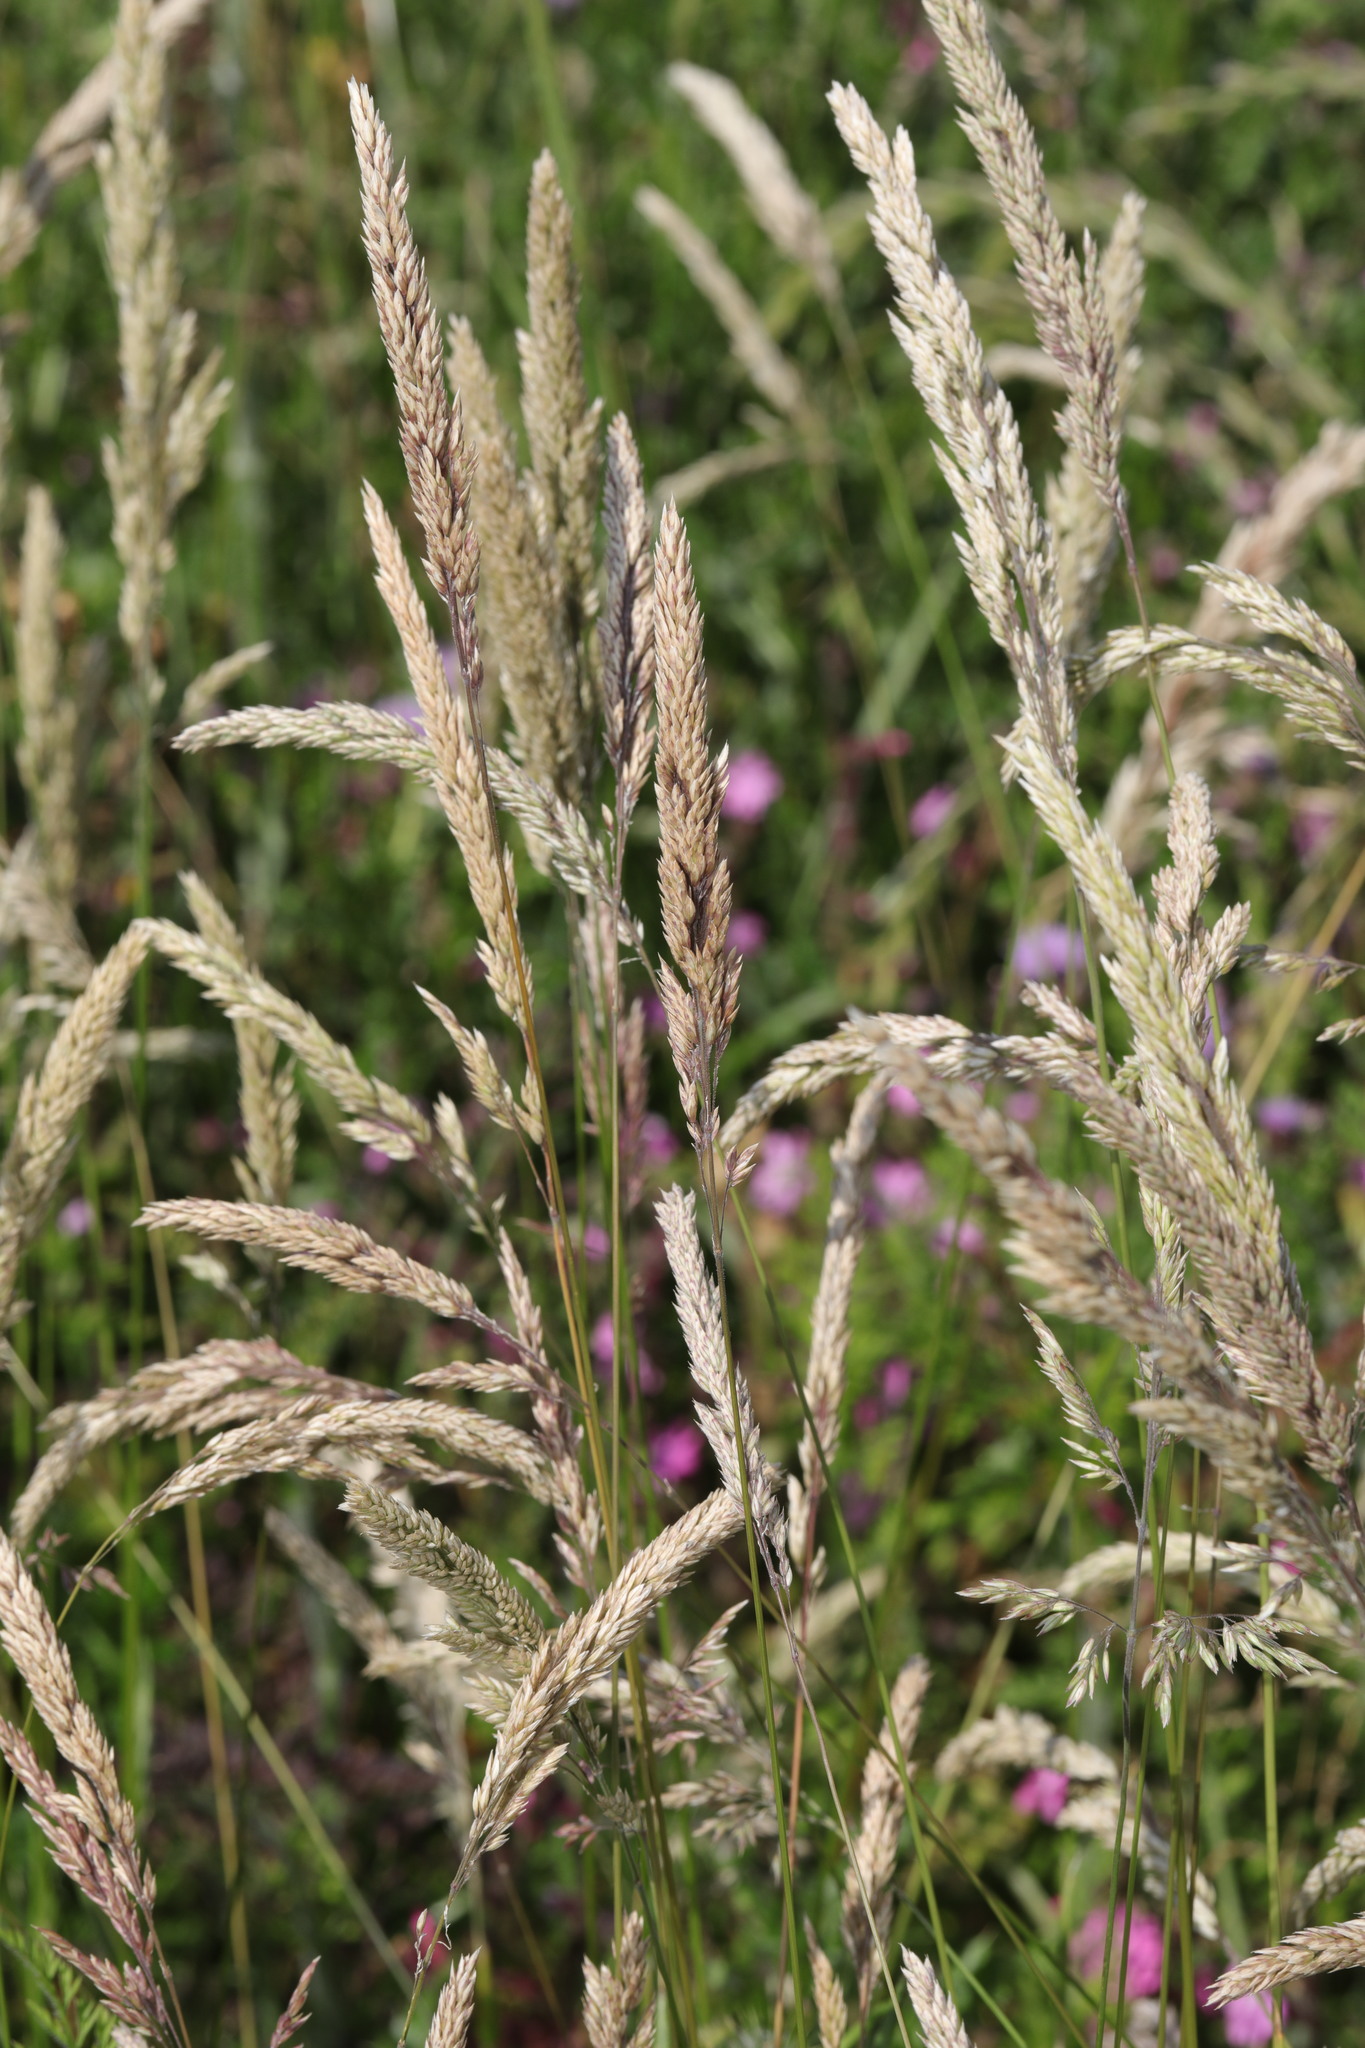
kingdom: Plantae
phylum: Tracheophyta
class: Liliopsida
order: Poales
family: Poaceae
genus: Holcus
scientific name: Holcus lanatus
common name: Yorkshire-fog
